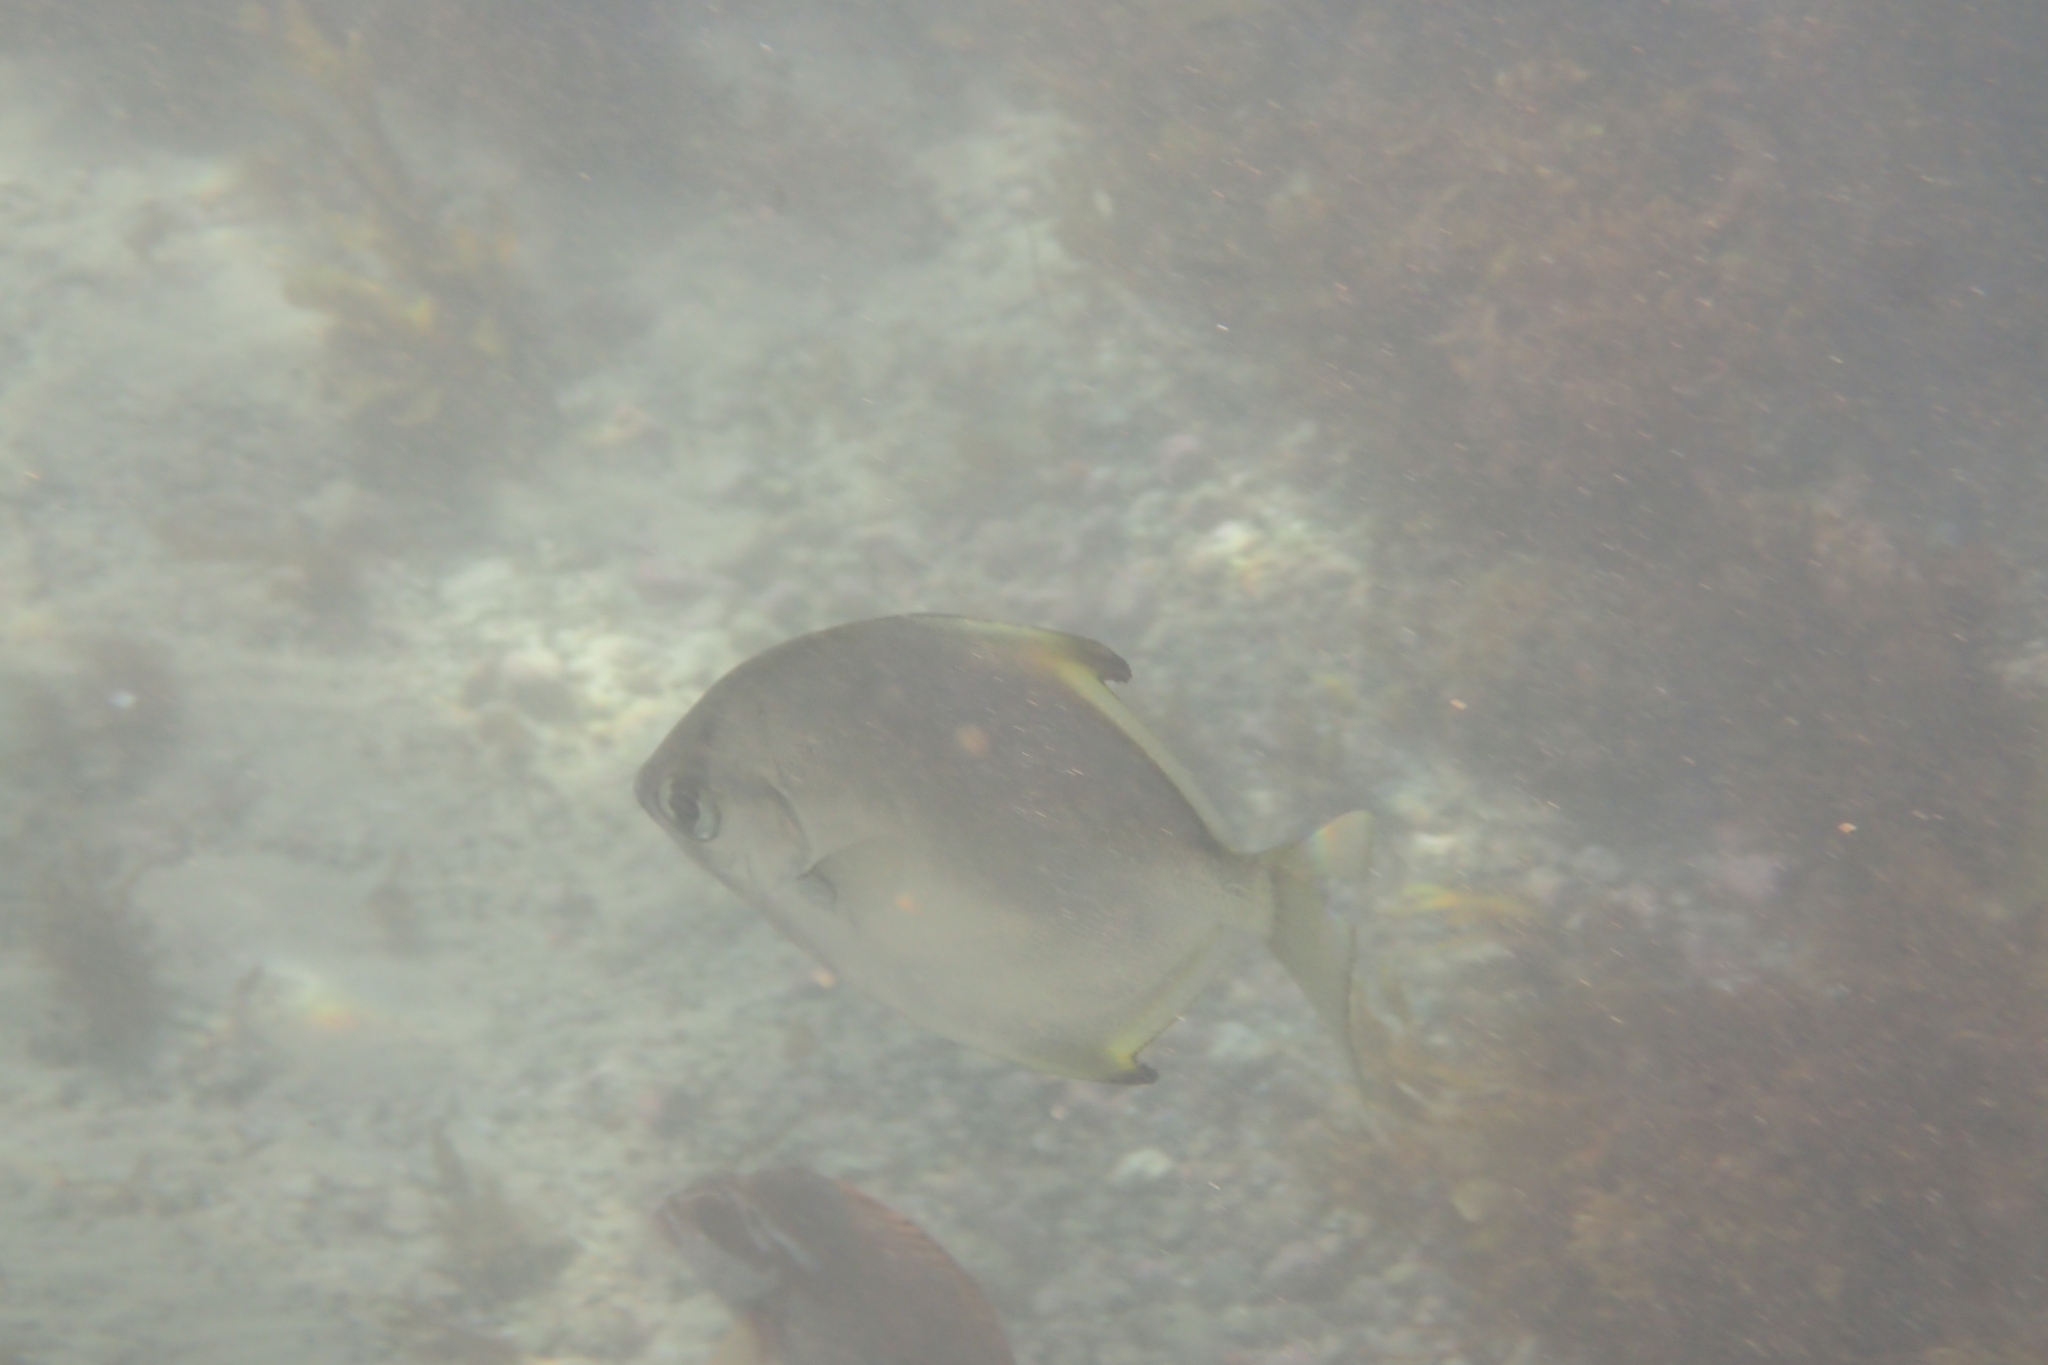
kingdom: Animalia
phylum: Chordata
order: Perciformes
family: Monodactylidae
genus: Monodactylus
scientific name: Monodactylus argenteus
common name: Silver moony
